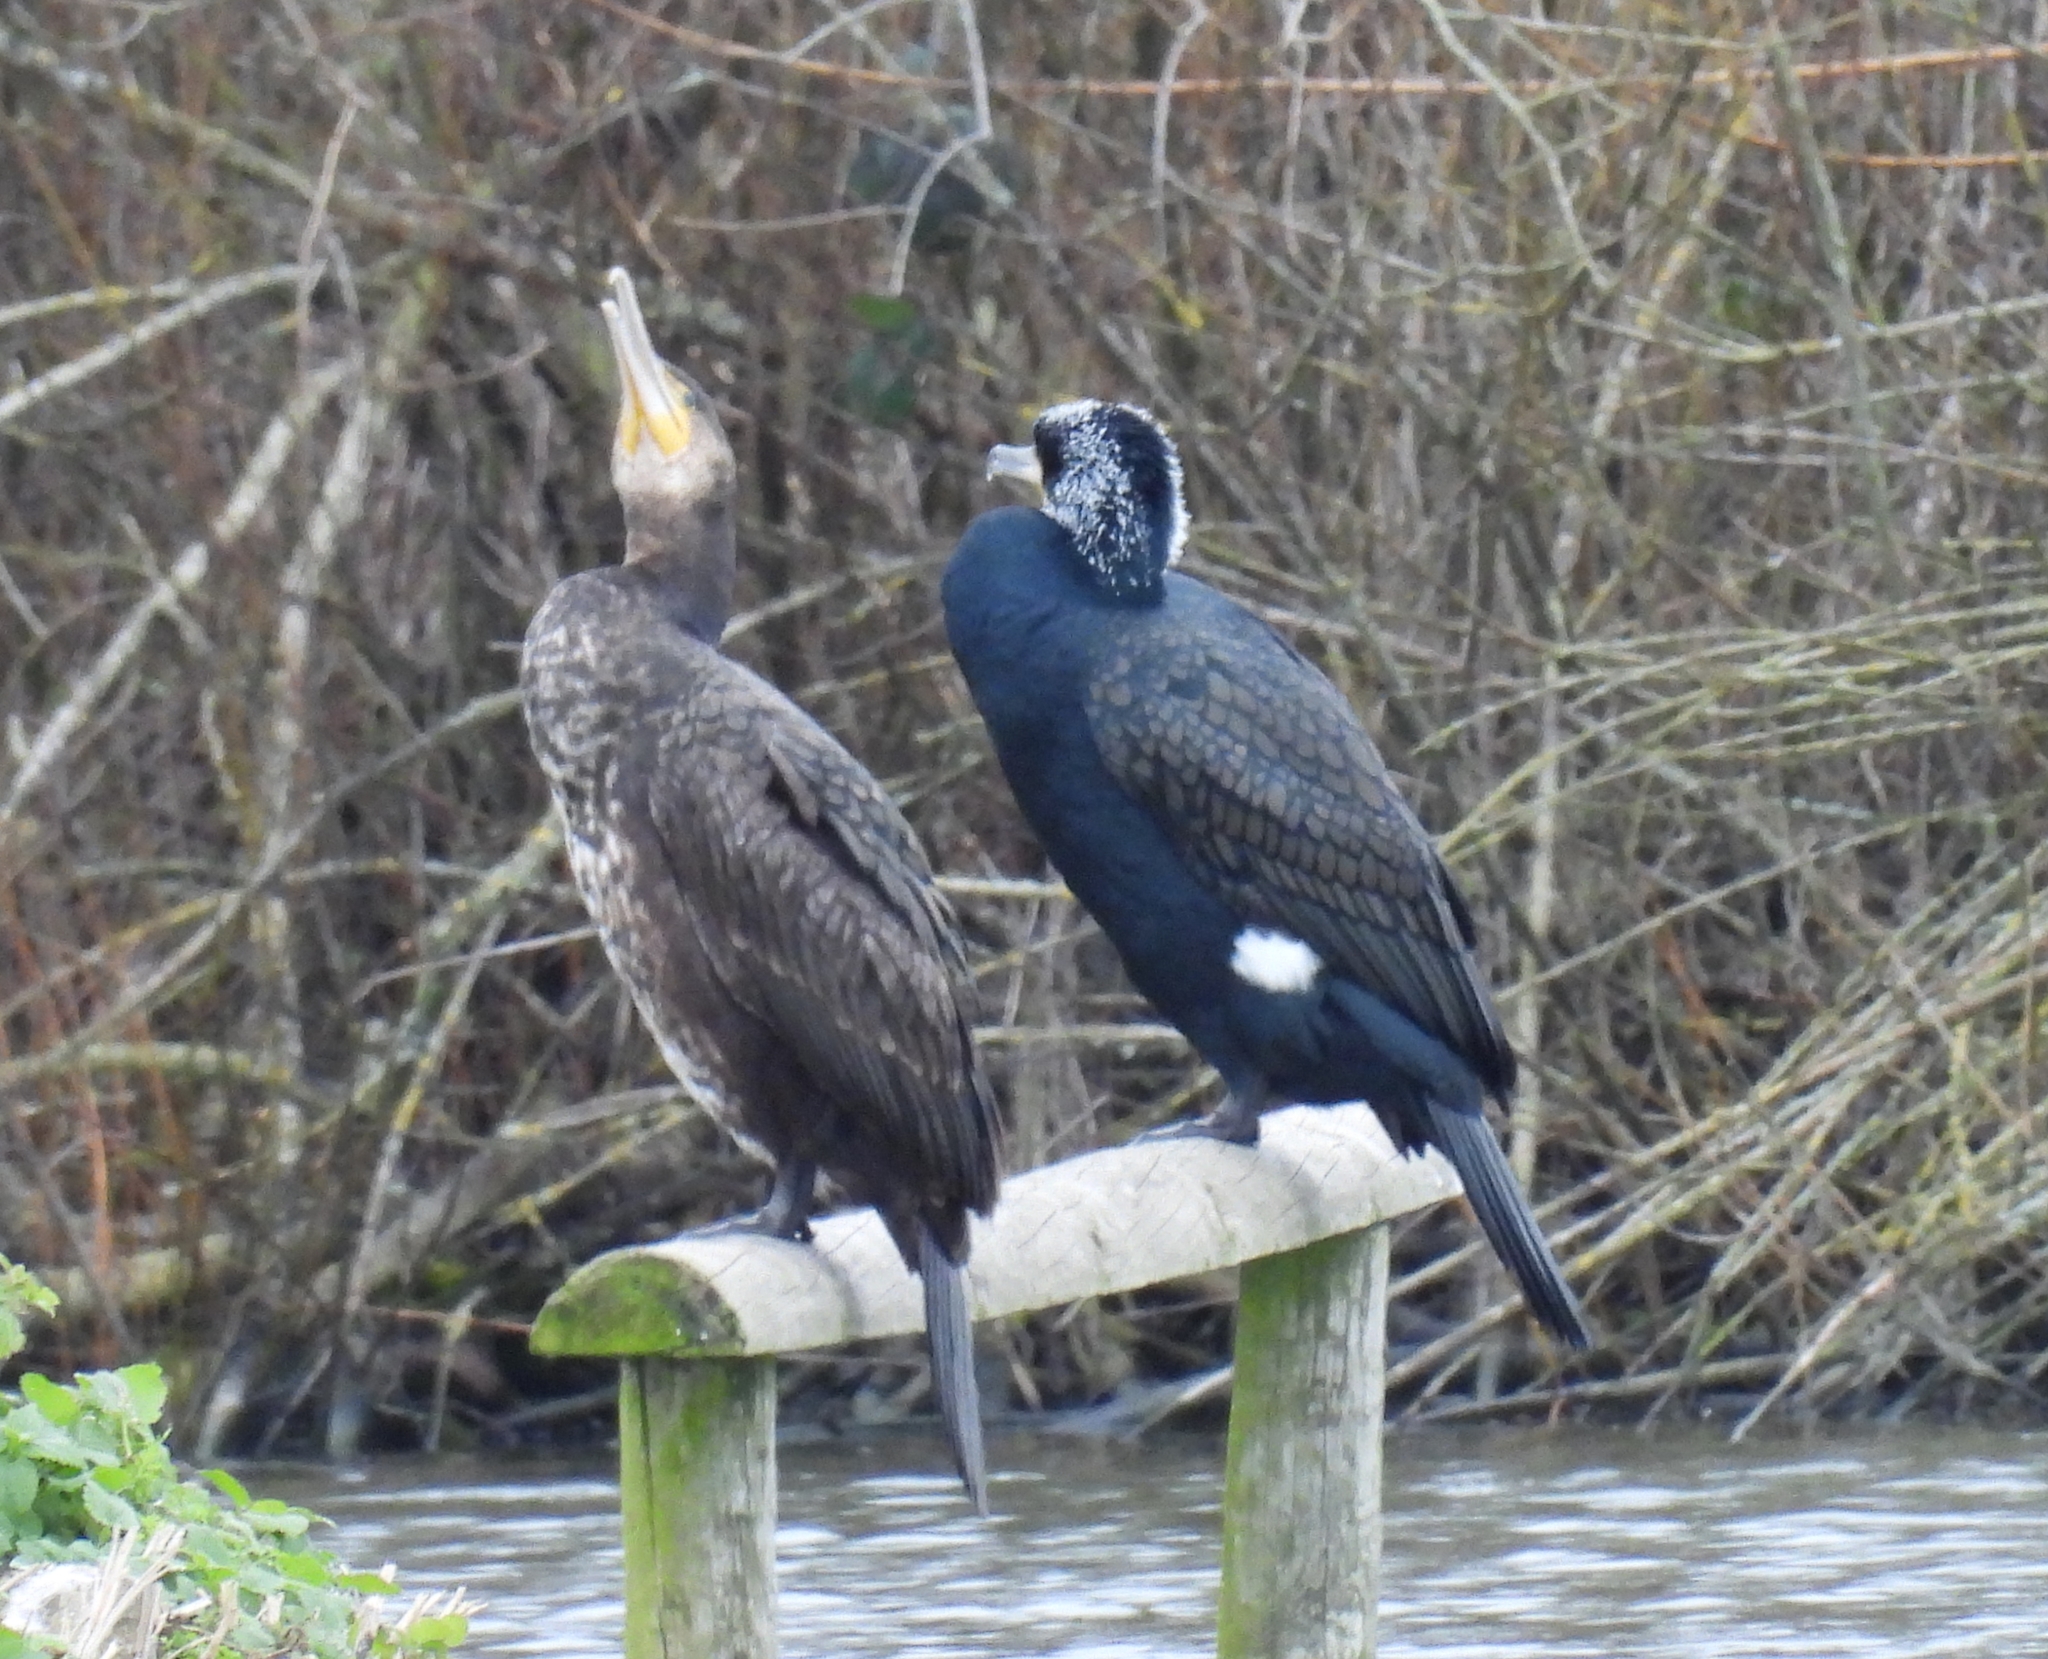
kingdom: Animalia
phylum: Chordata
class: Aves
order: Suliformes
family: Phalacrocoracidae
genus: Phalacrocorax
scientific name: Phalacrocorax carbo
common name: Great cormorant
